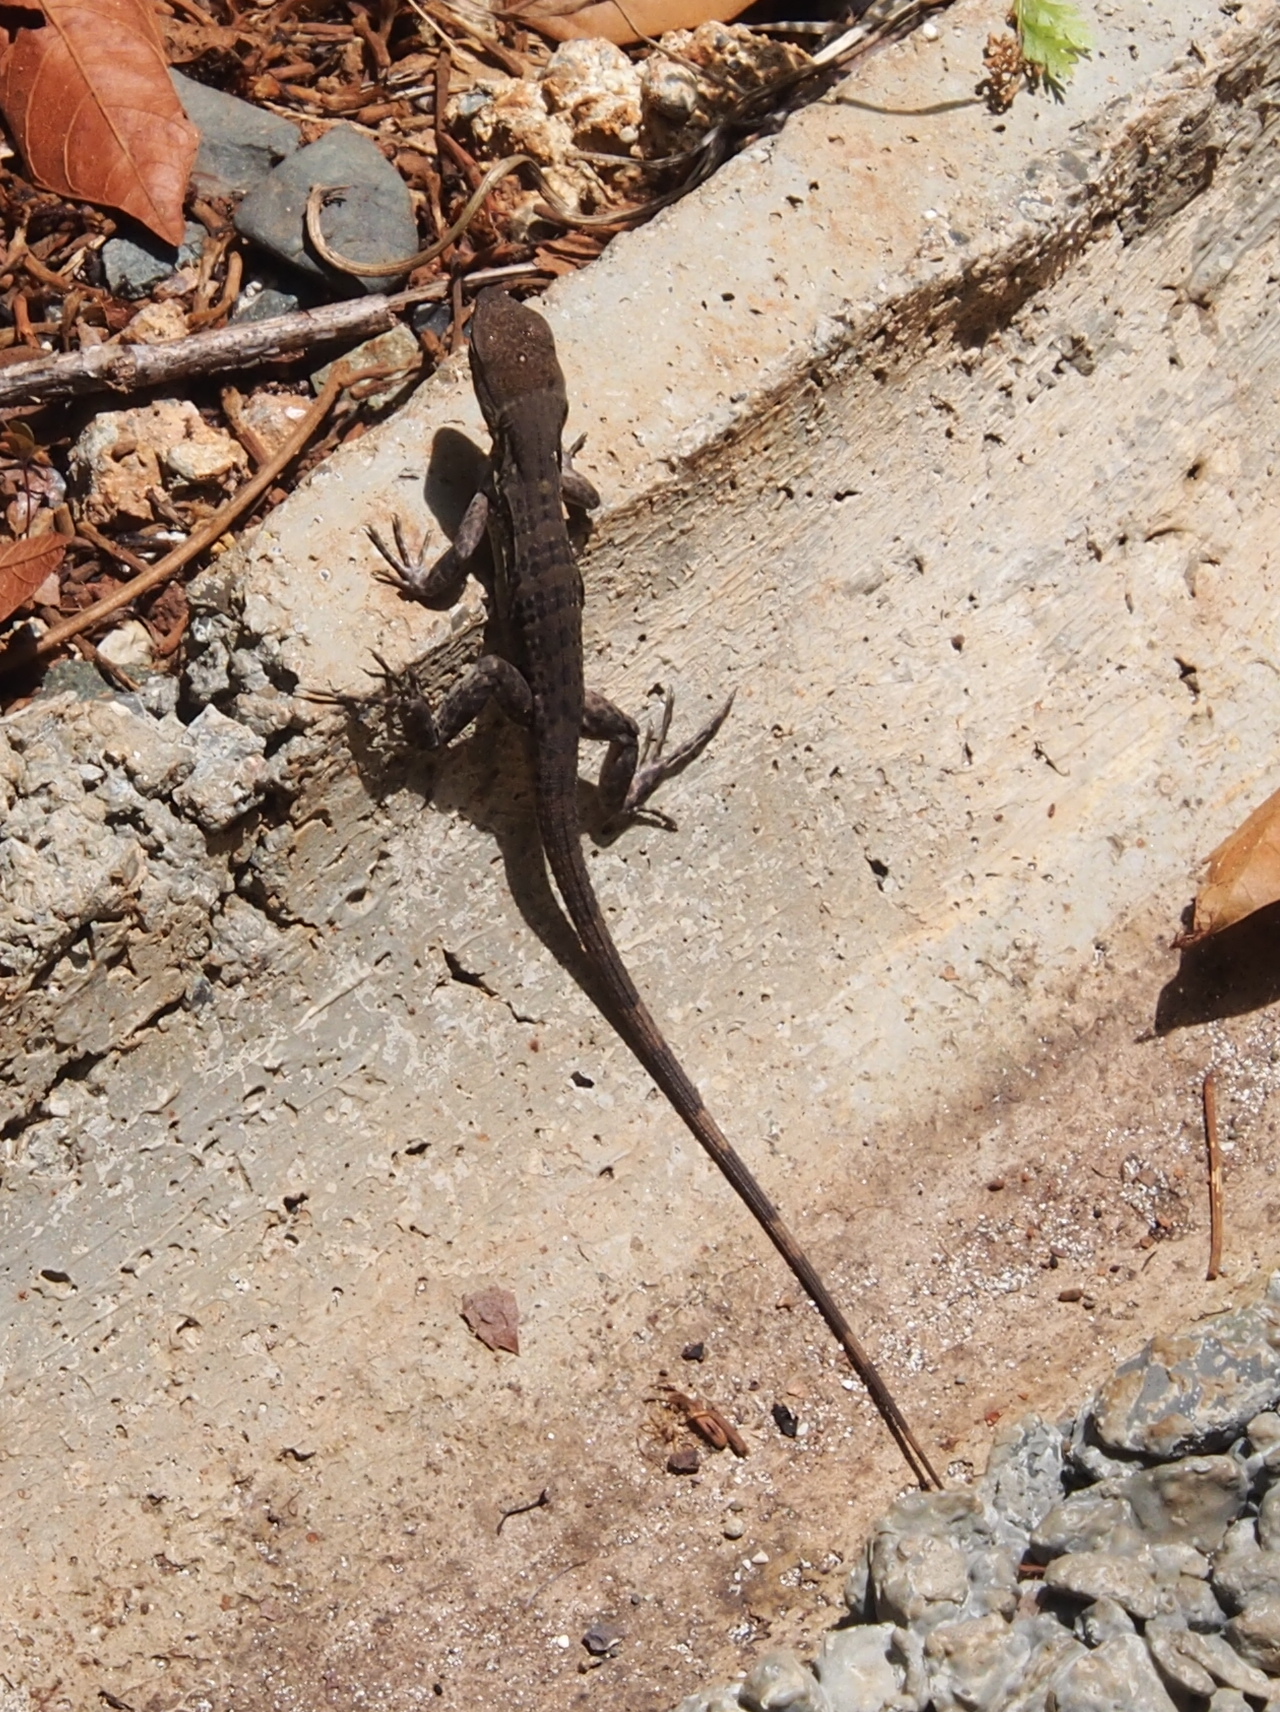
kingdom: Animalia
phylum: Chordata
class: Squamata
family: Iguanidae
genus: Ctenosaura
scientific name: Ctenosaura similis
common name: Black spiny-tailed iguana
